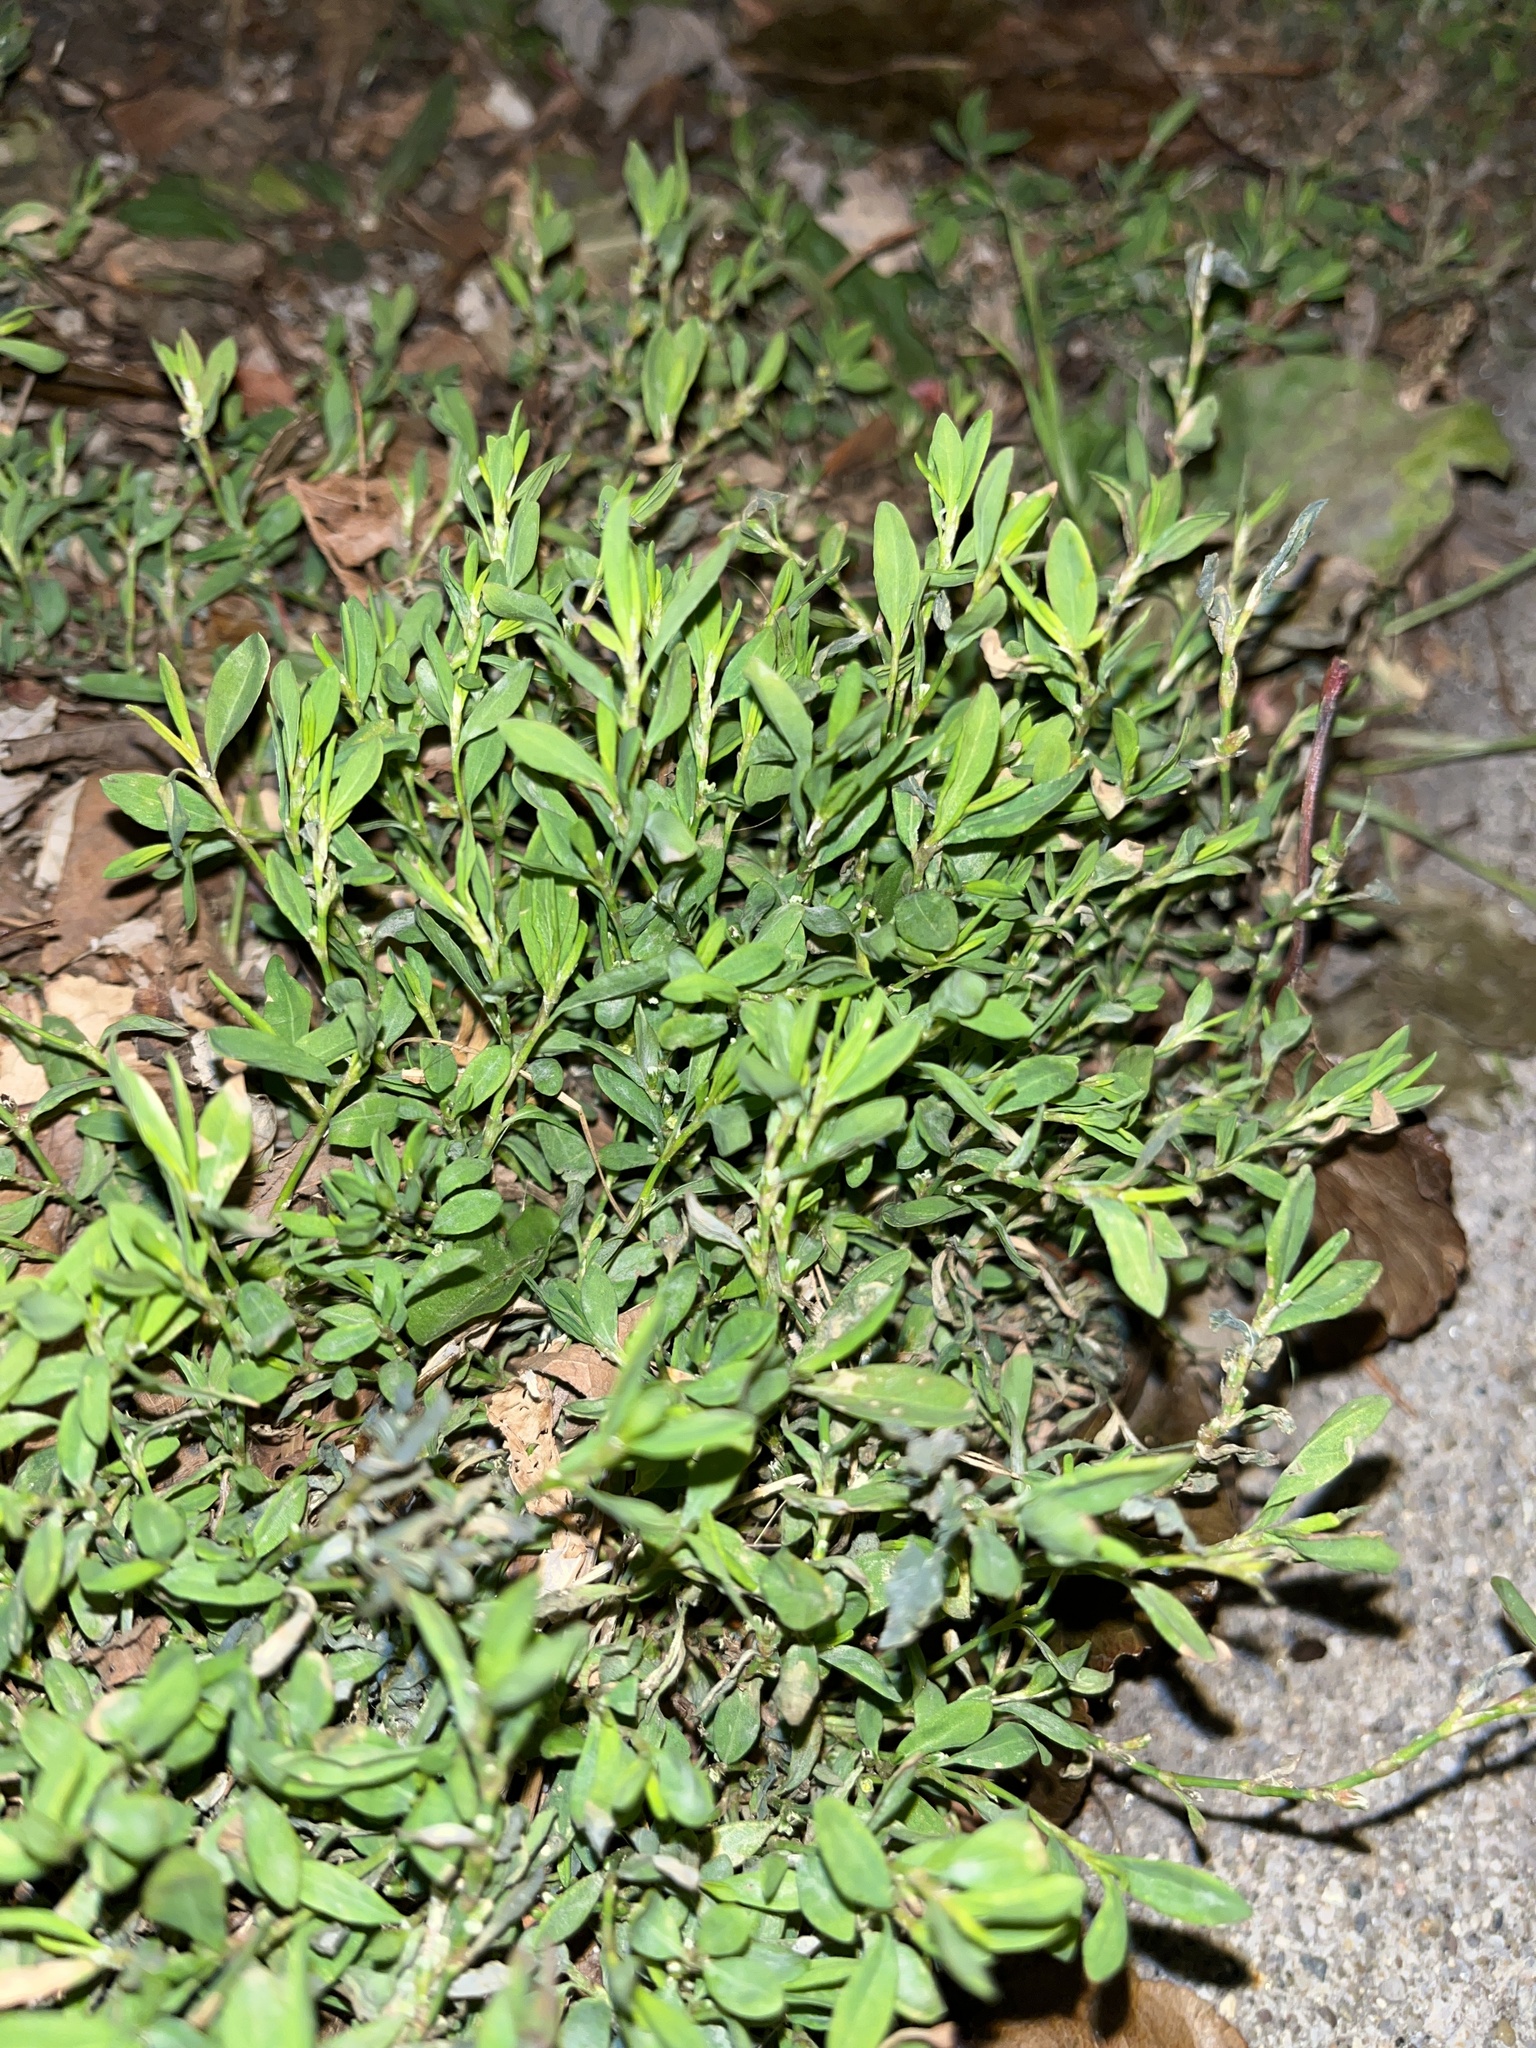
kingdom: Plantae
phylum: Tracheophyta
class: Magnoliopsida
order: Caryophyllales
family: Polygonaceae
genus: Polygonum
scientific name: Polygonum aviculare
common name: Prostrate knotweed
